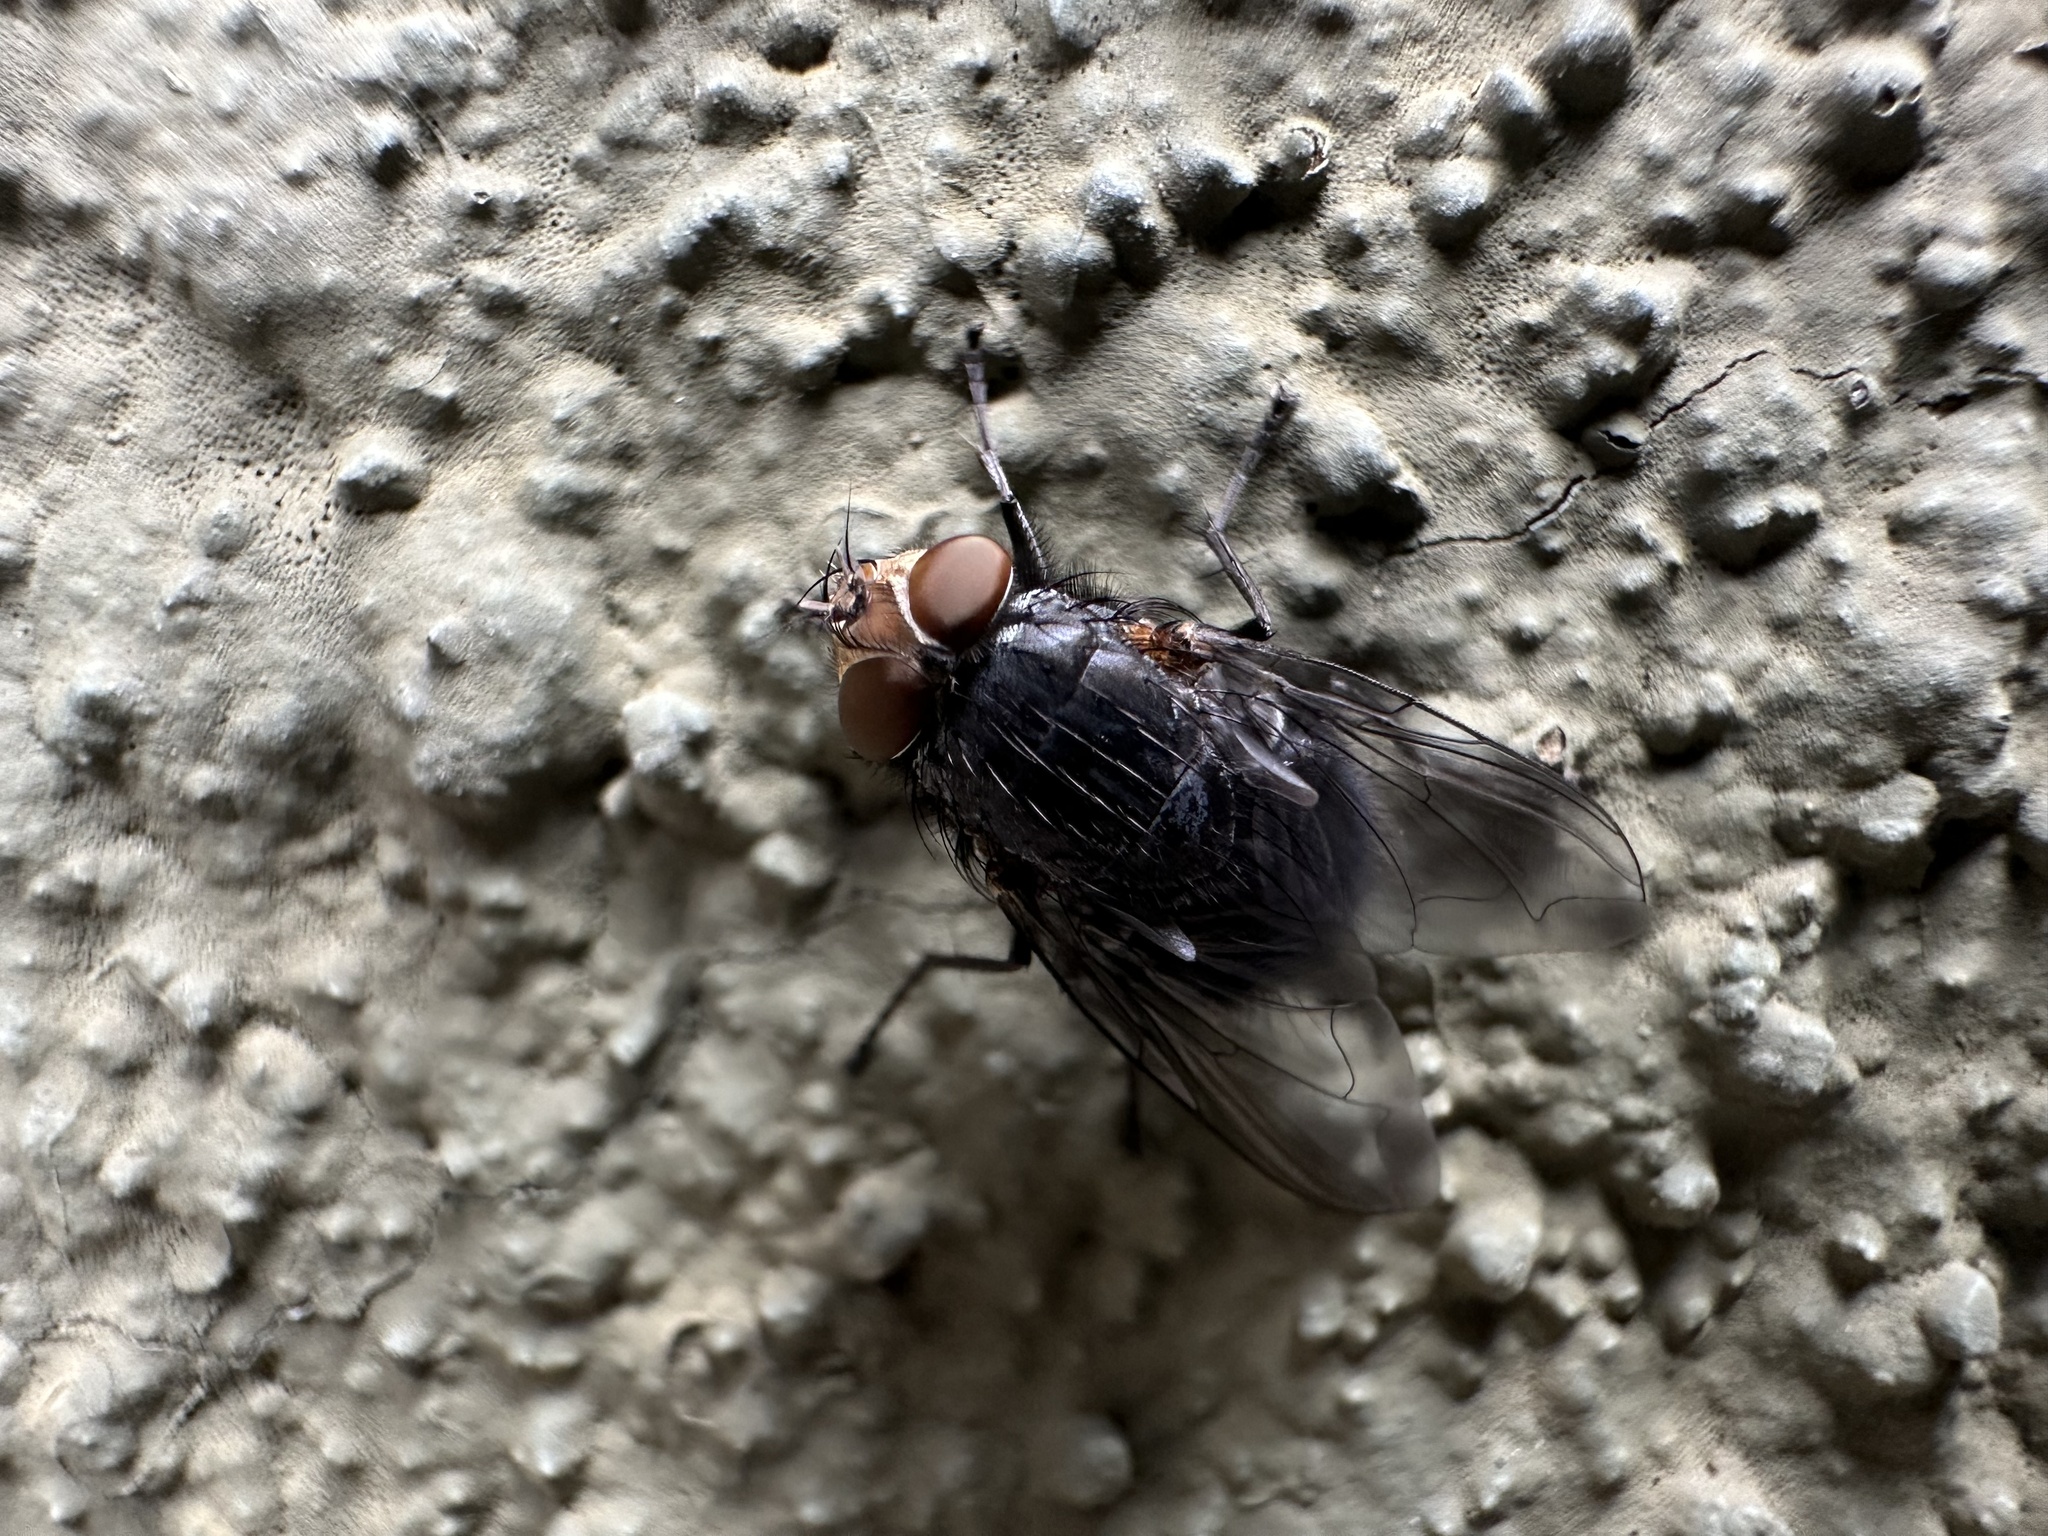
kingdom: Animalia
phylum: Arthropoda
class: Insecta
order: Diptera
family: Calliphoridae
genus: Calliphora
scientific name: Calliphora vicina
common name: Common blow flie
